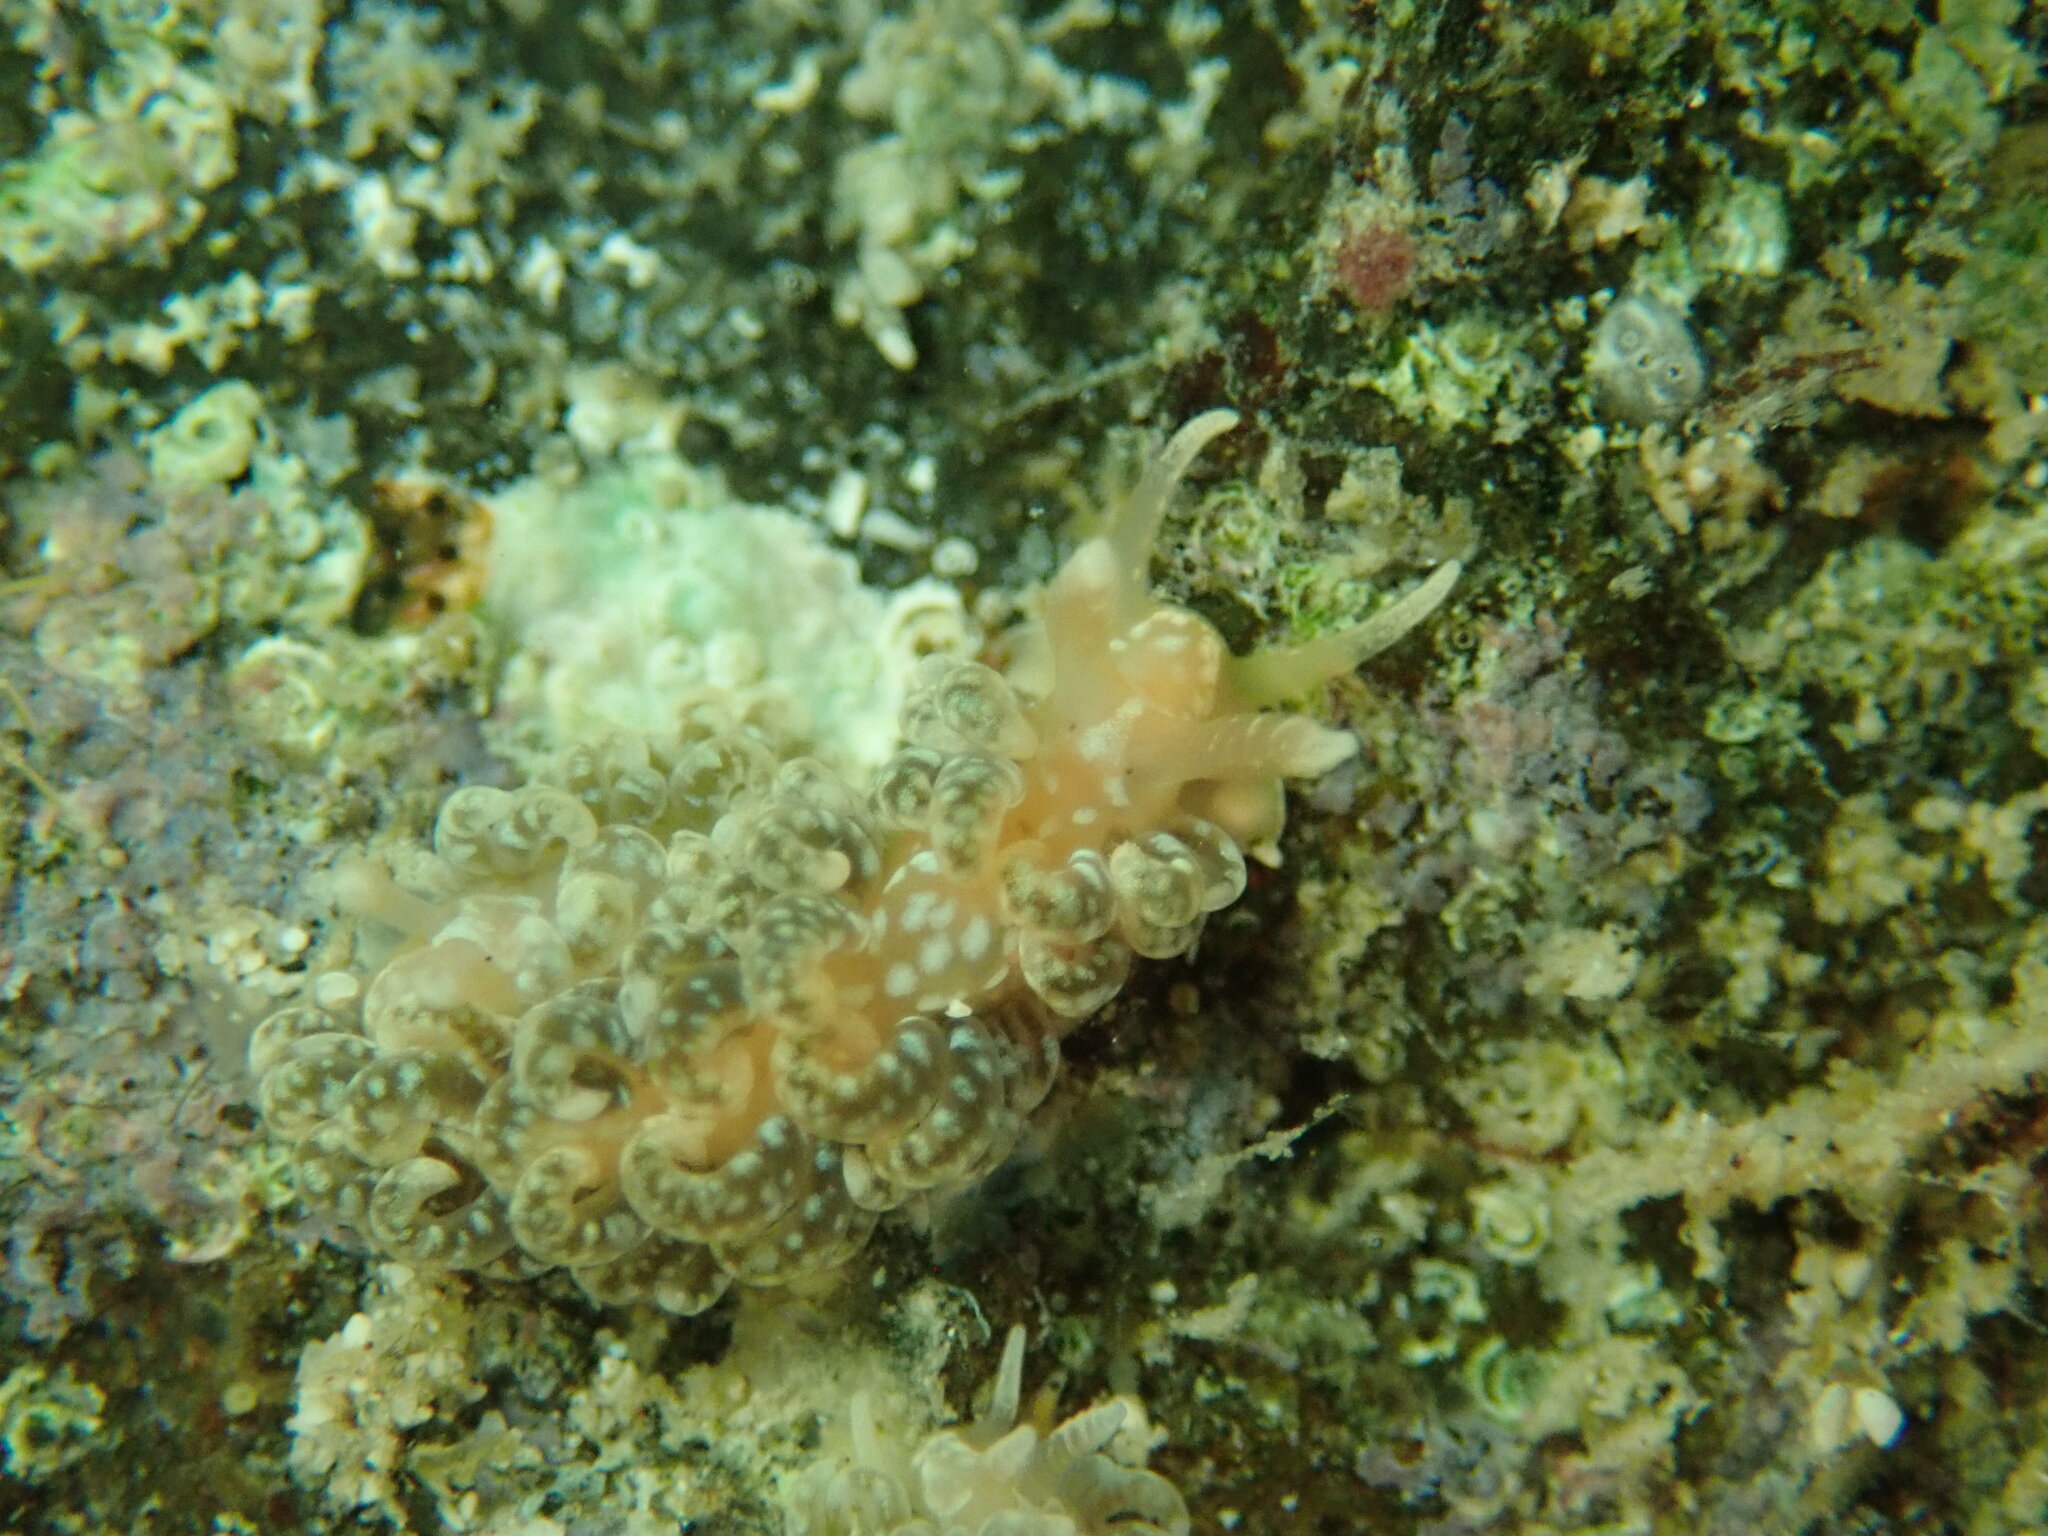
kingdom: Animalia
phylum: Mollusca
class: Gastropoda
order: Nudibranchia
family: Aeolidiidae
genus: Spurilla
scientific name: Spurilla braziliana
